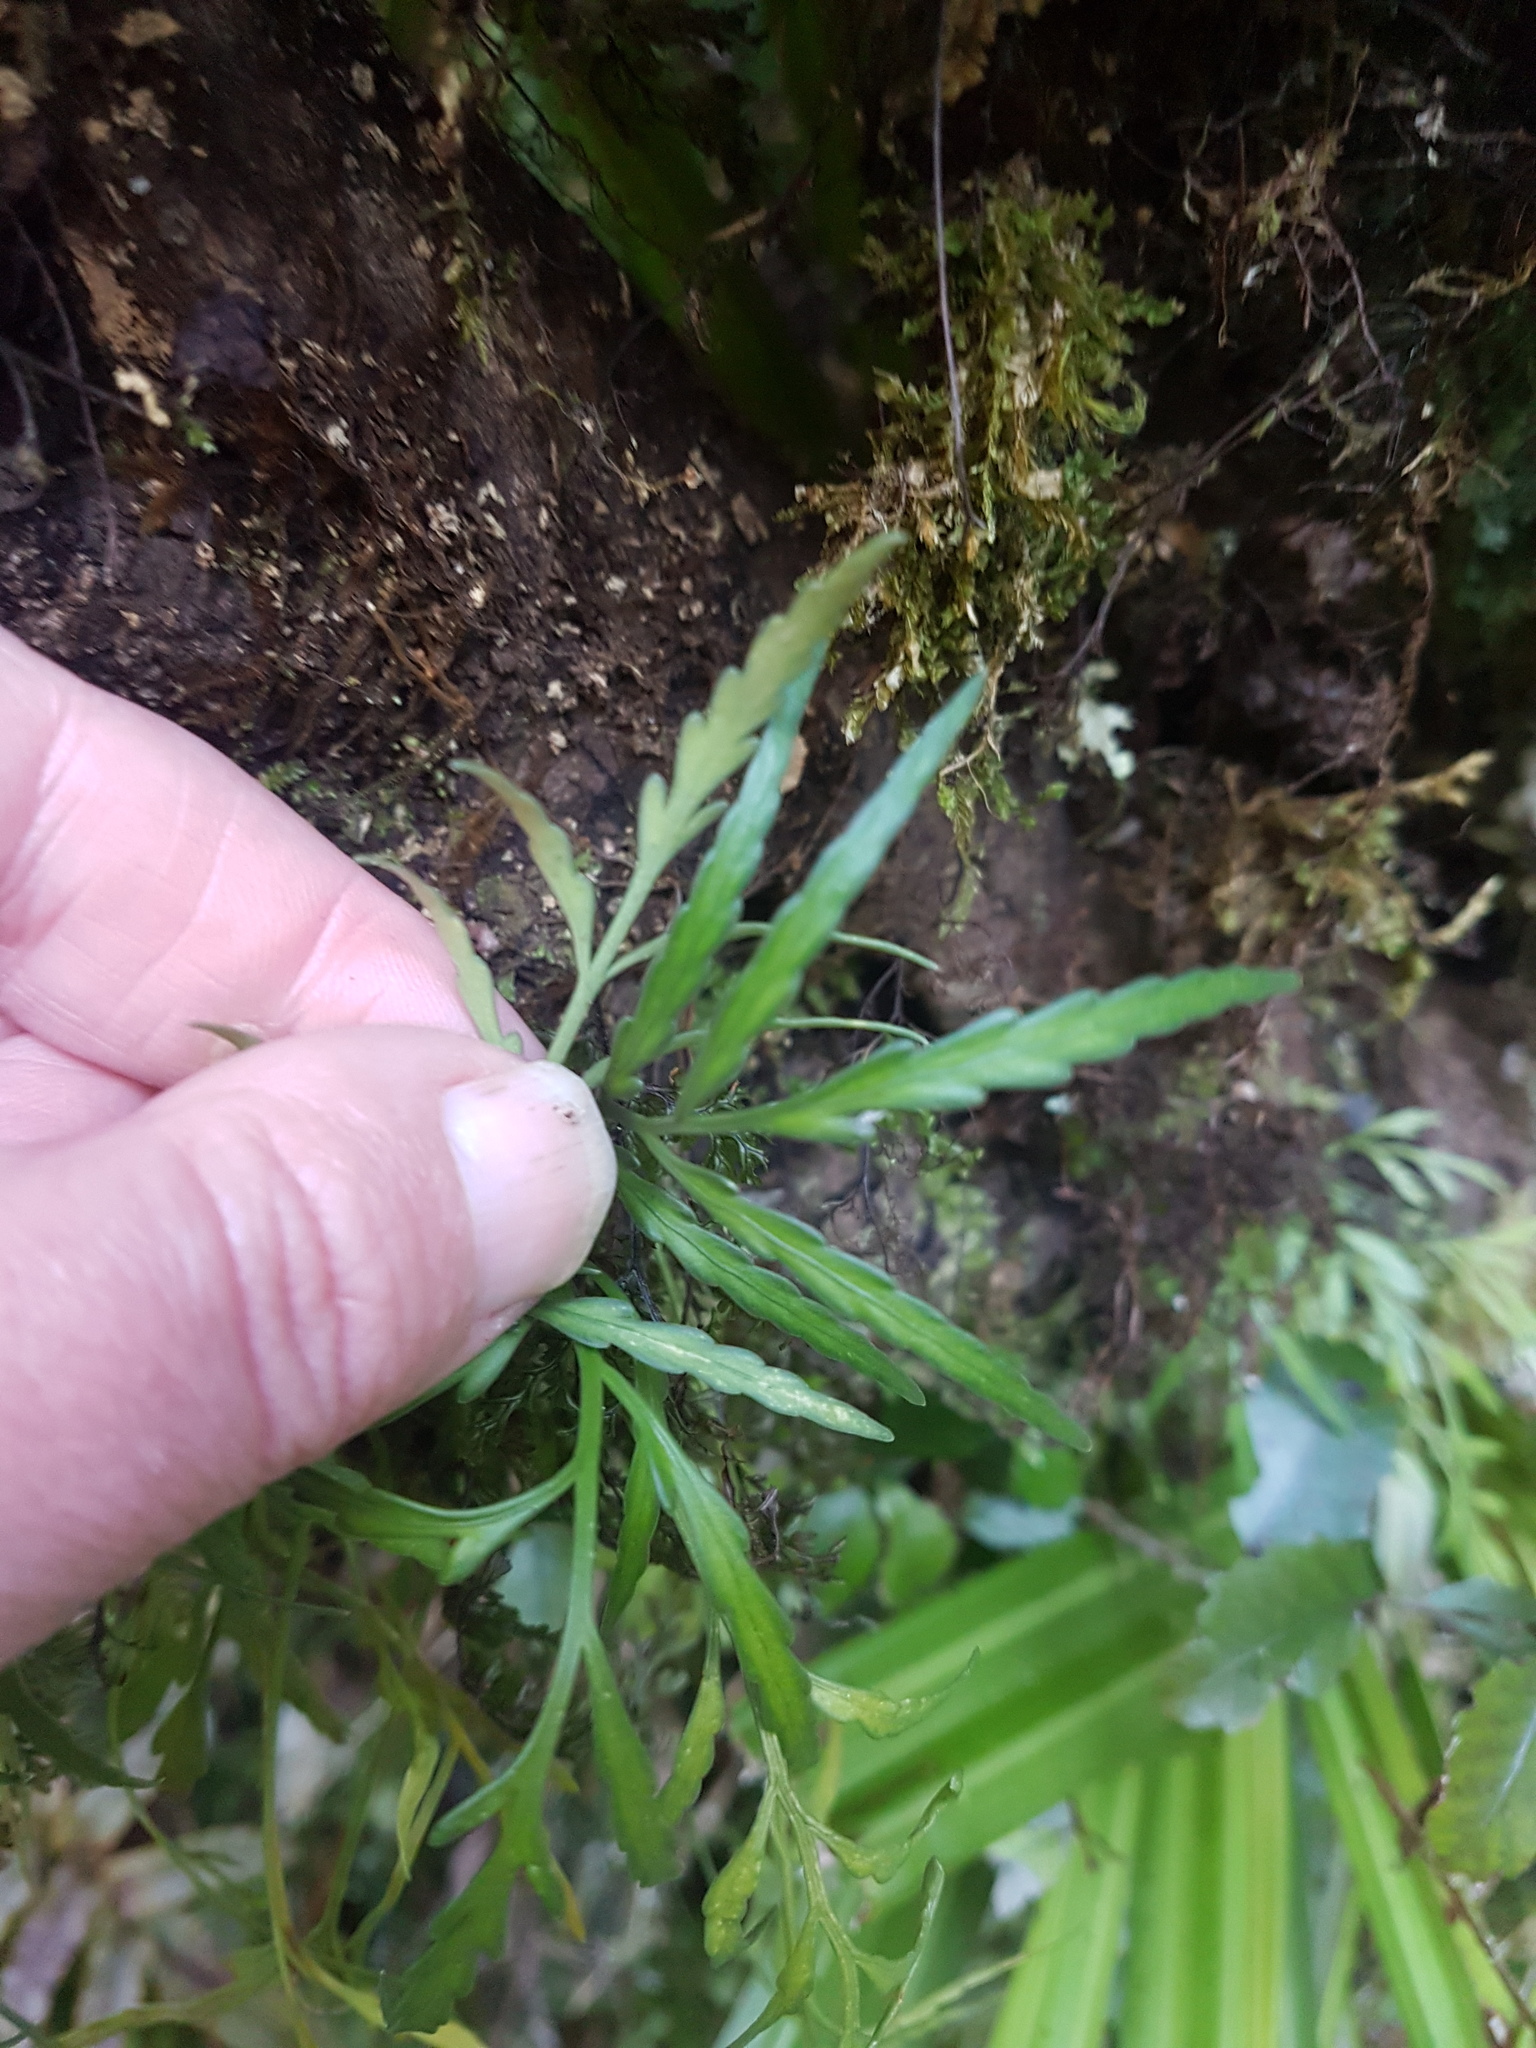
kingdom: Plantae
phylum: Tracheophyta
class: Polypodiopsida
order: Polypodiales
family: Aspleniaceae
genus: Asplenium
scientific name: Asplenium flaccidum
